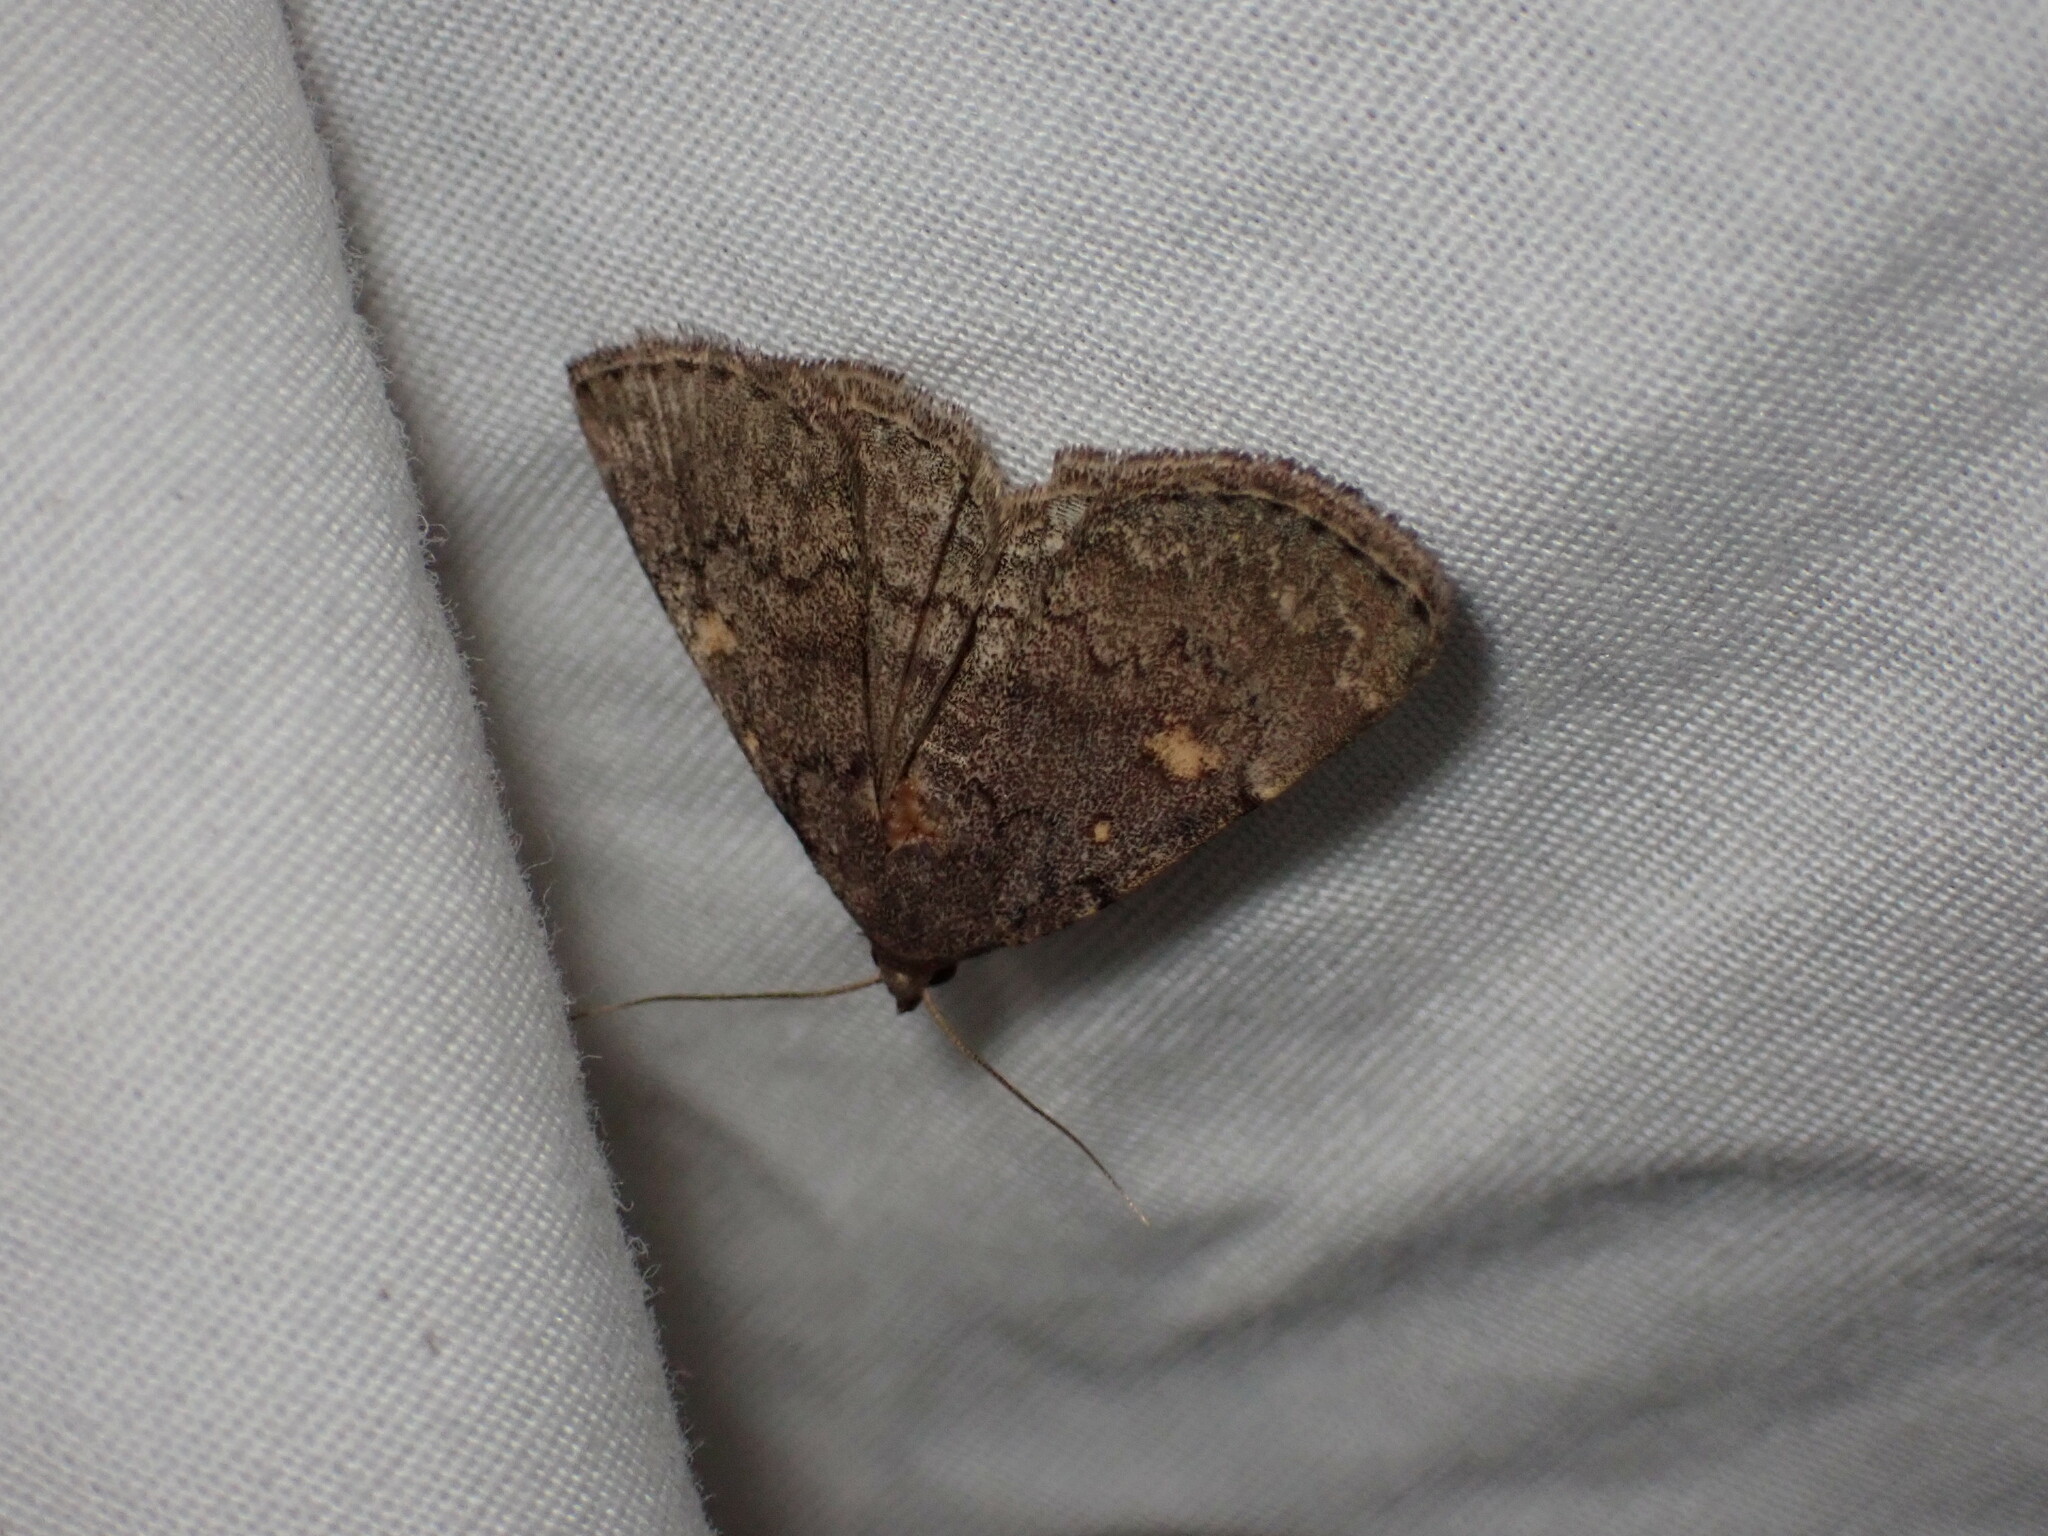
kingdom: Animalia
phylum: Arthropoda
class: Insecta
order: Lepidoptera
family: Erebidae
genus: Idia
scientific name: Idia aemula
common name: Common idia moth
